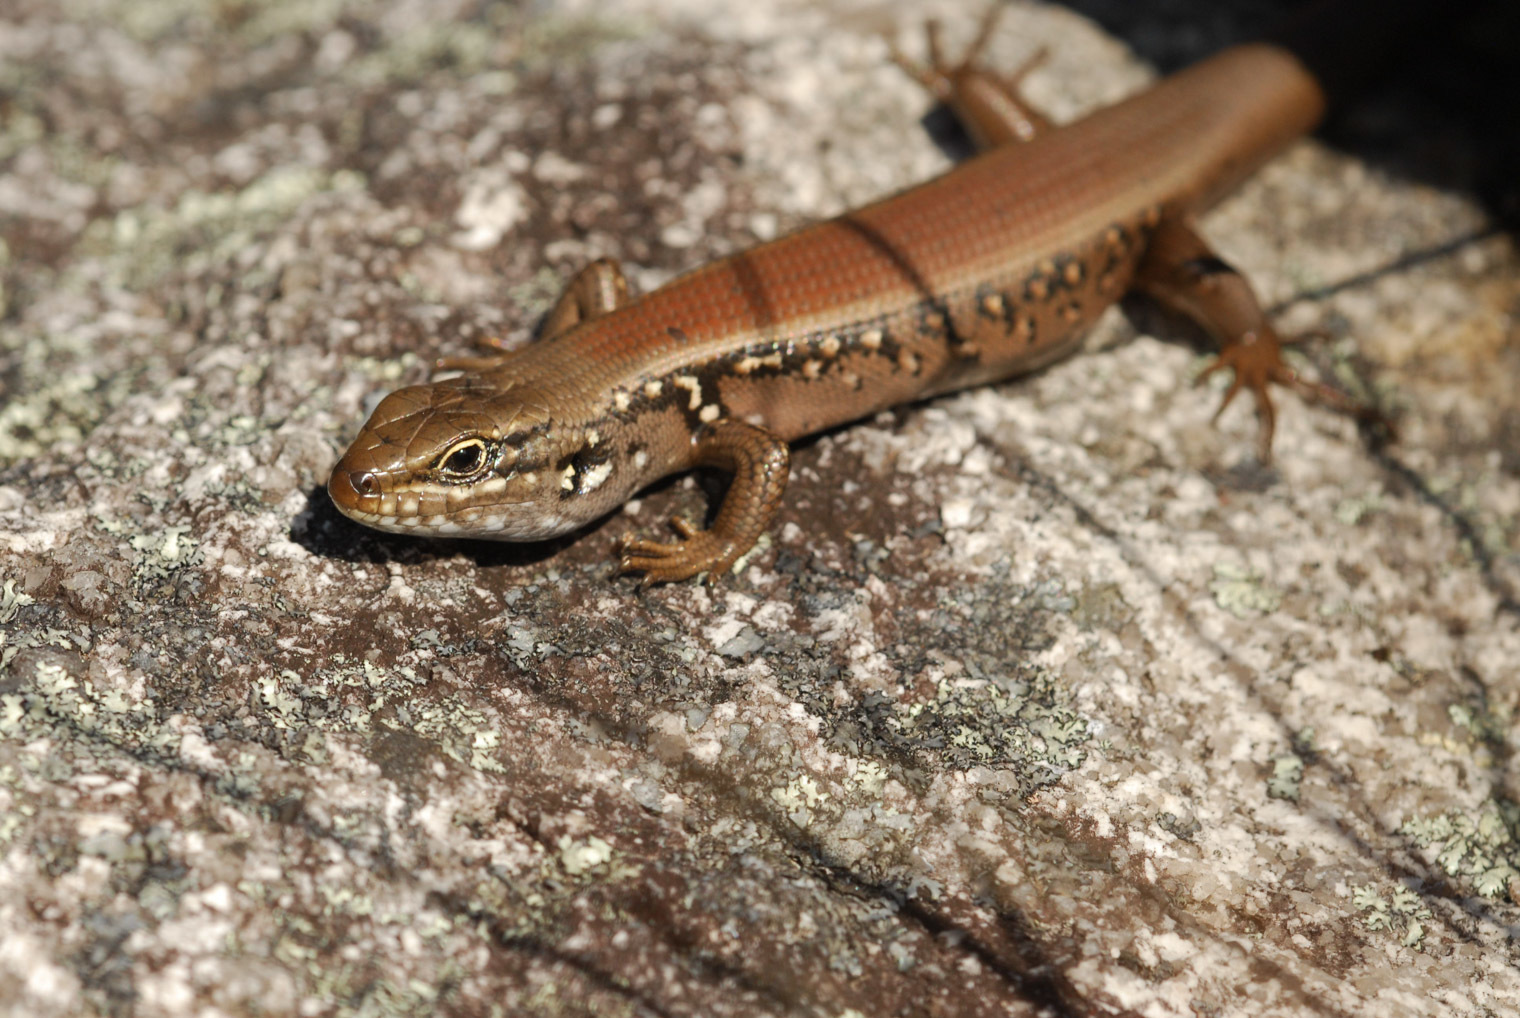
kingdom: Animalia
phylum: Chordata
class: Squamata
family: Scincidae
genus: Liopholis
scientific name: Liopholis whitii
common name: White's rock-skink
